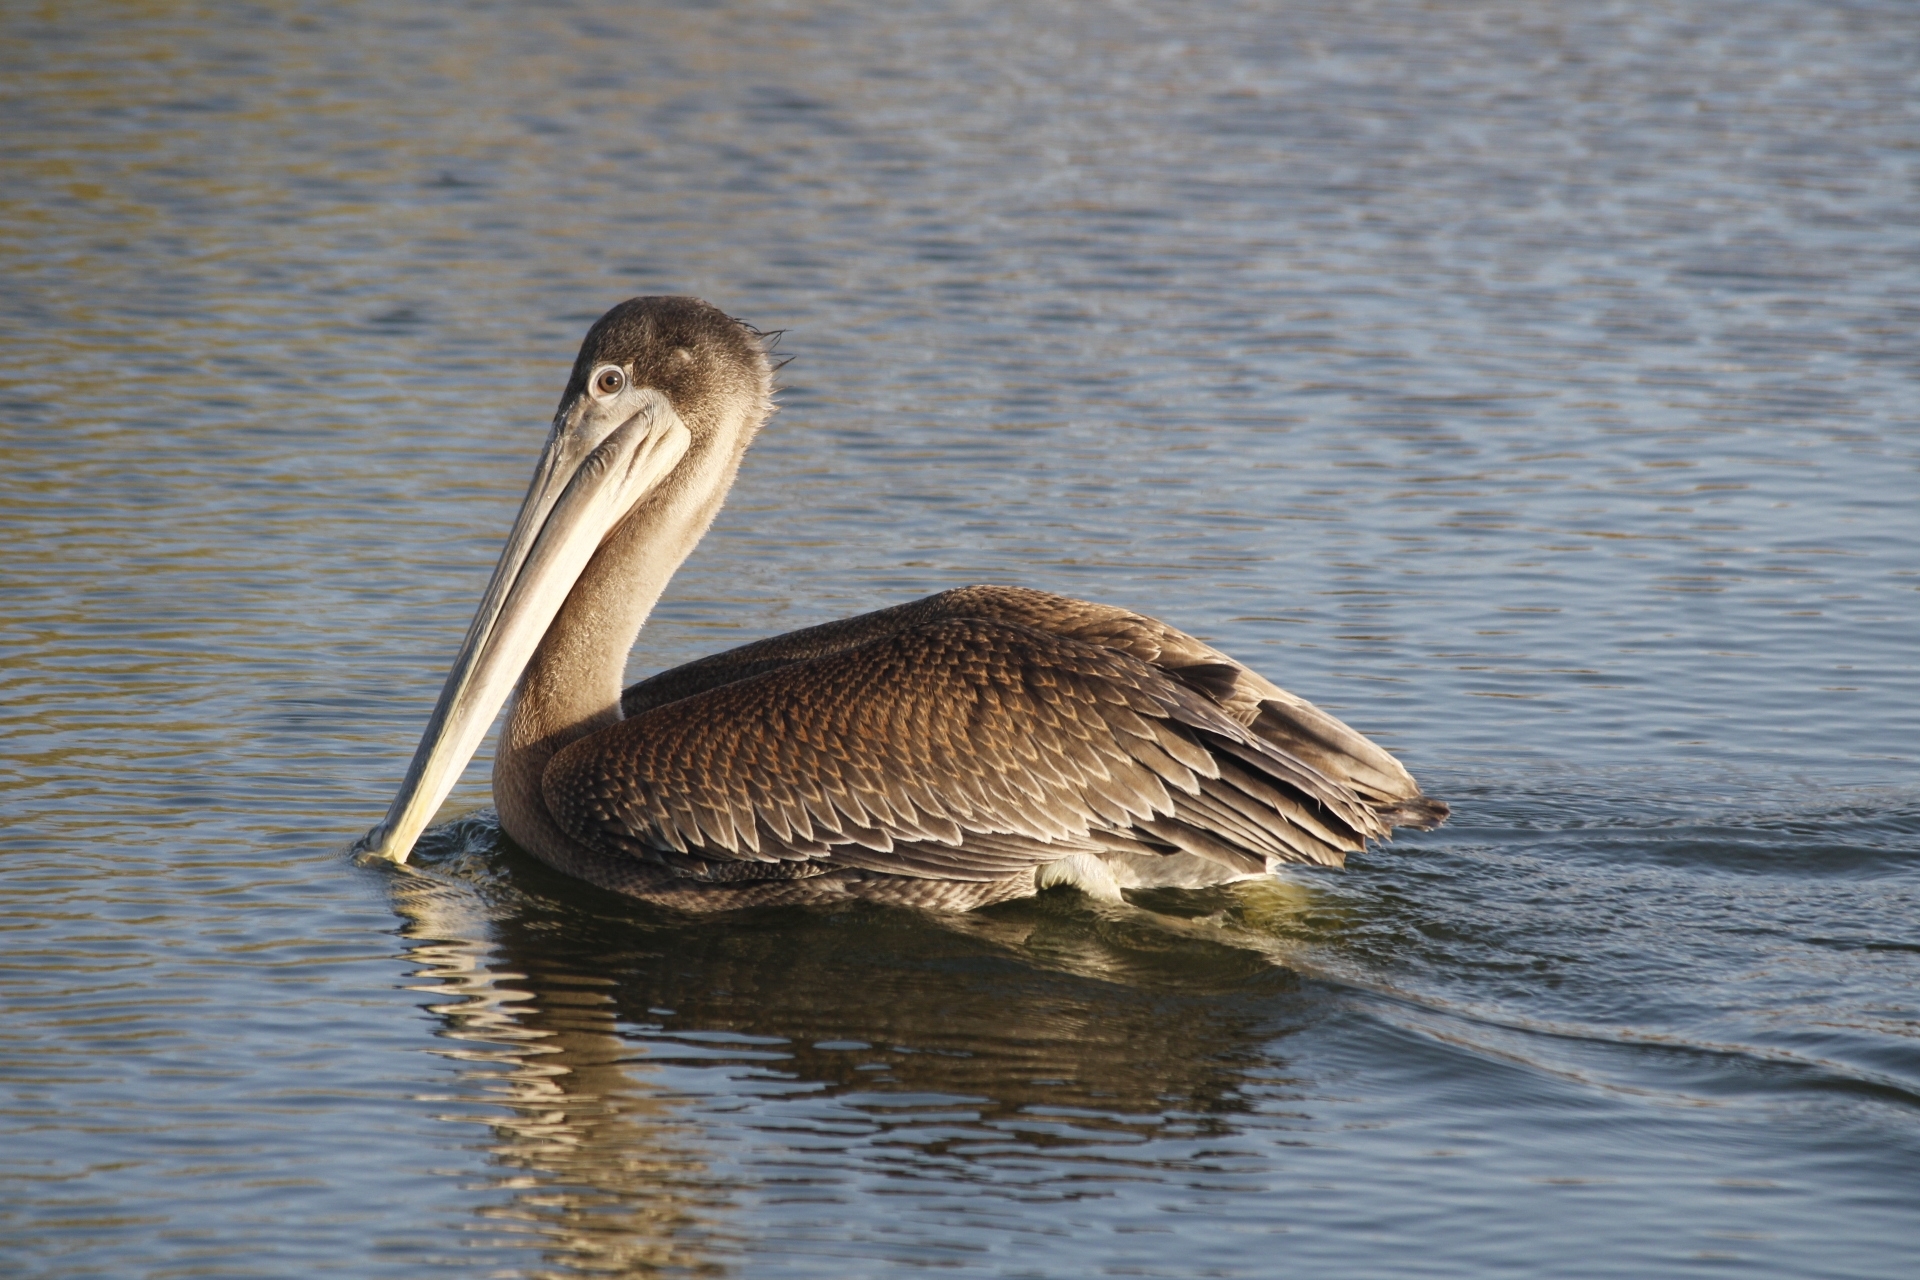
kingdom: Animalia
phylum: Chordata
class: Aves
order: Pelecaniformes
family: Pelecanidae
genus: Pelecanus
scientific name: Pelecanus occidentalis
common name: Brown pelican
